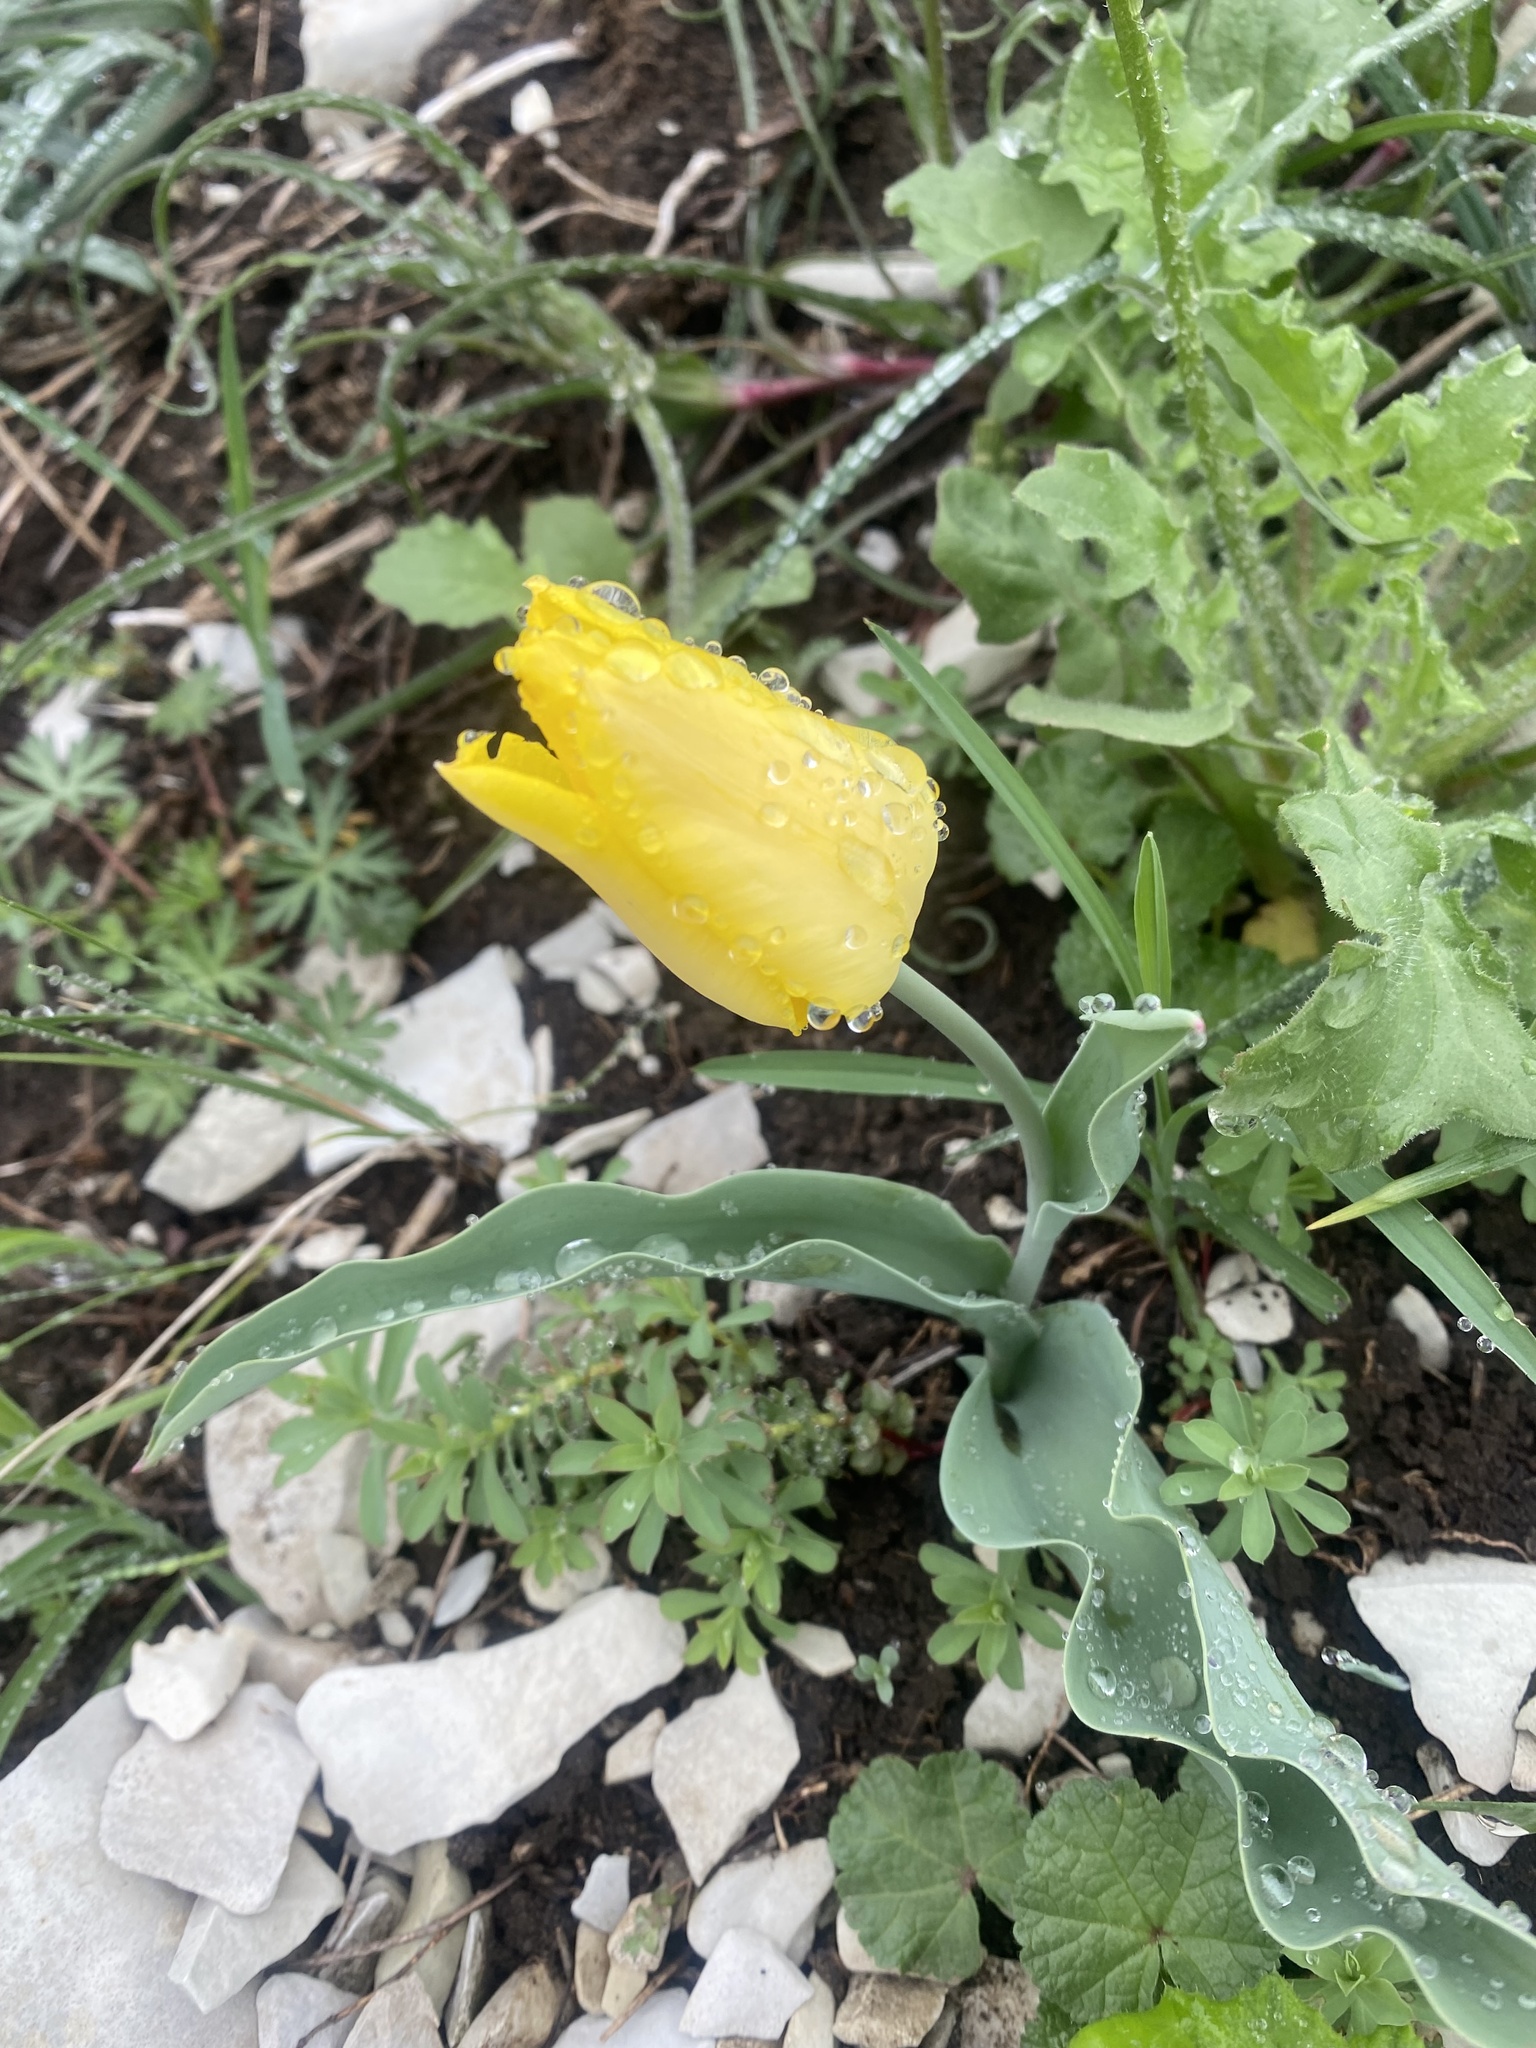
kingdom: Plantae
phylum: Tracheophyta
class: Liliopsida
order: Liliales
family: Liliaceae
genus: Tulipa
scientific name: Tulipa suaveolens
